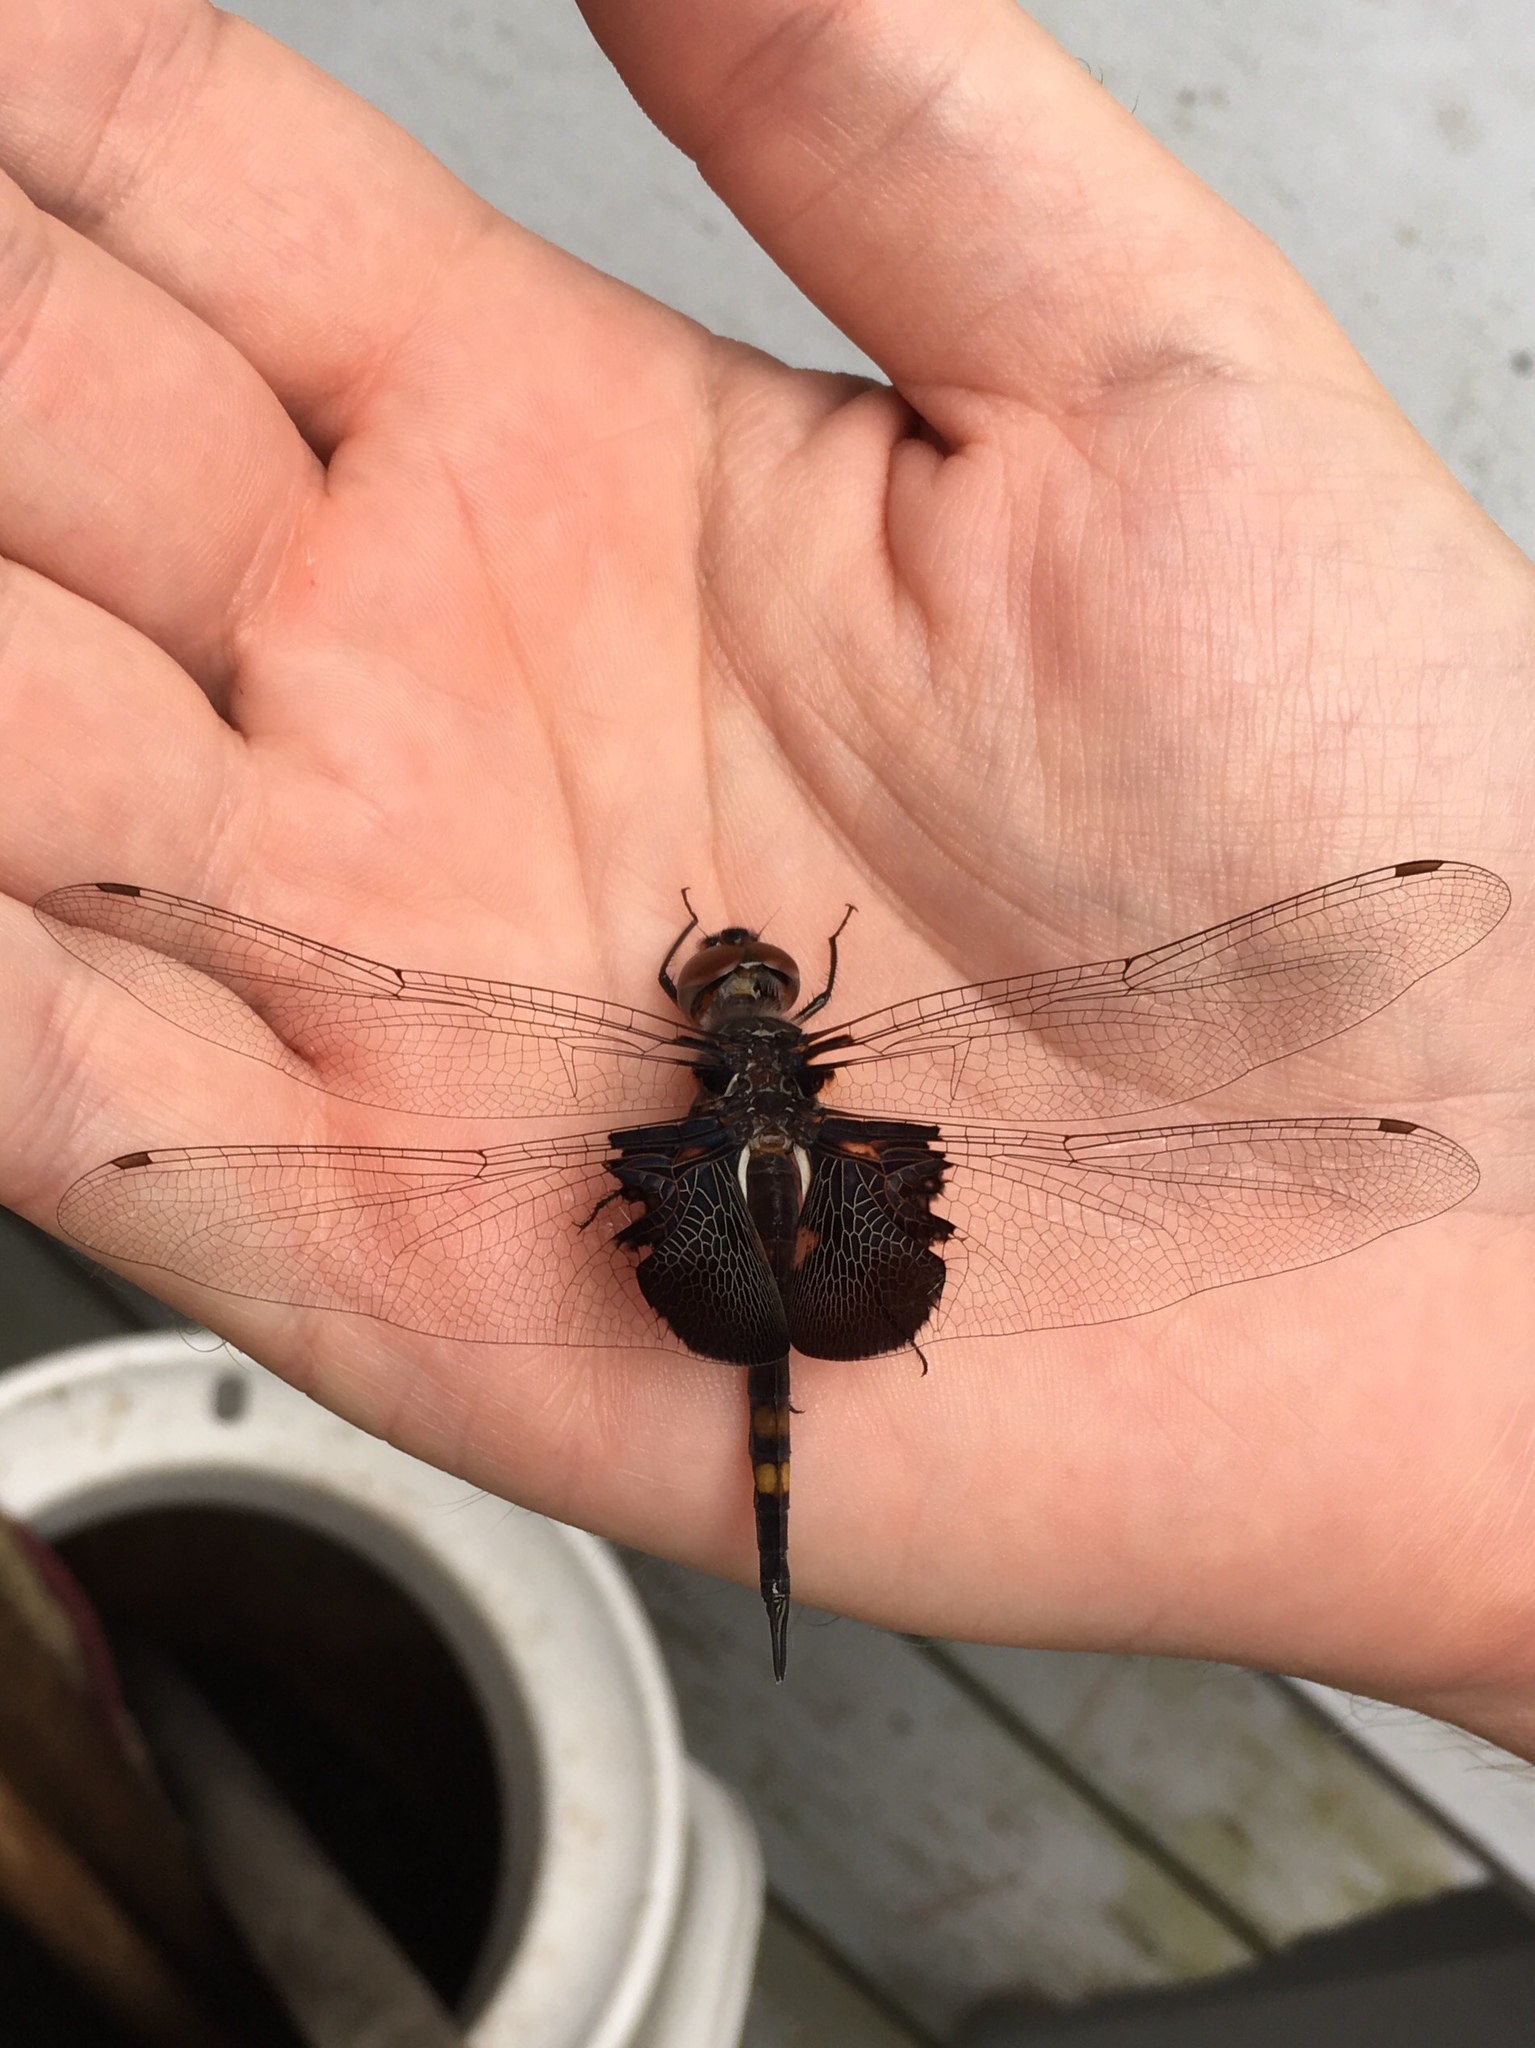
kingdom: Animalia
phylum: Arthropoda
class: Insecta
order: Odonata
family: Libellulidae
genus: Tramea
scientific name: Tramea lacerata
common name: Black saddlebags
